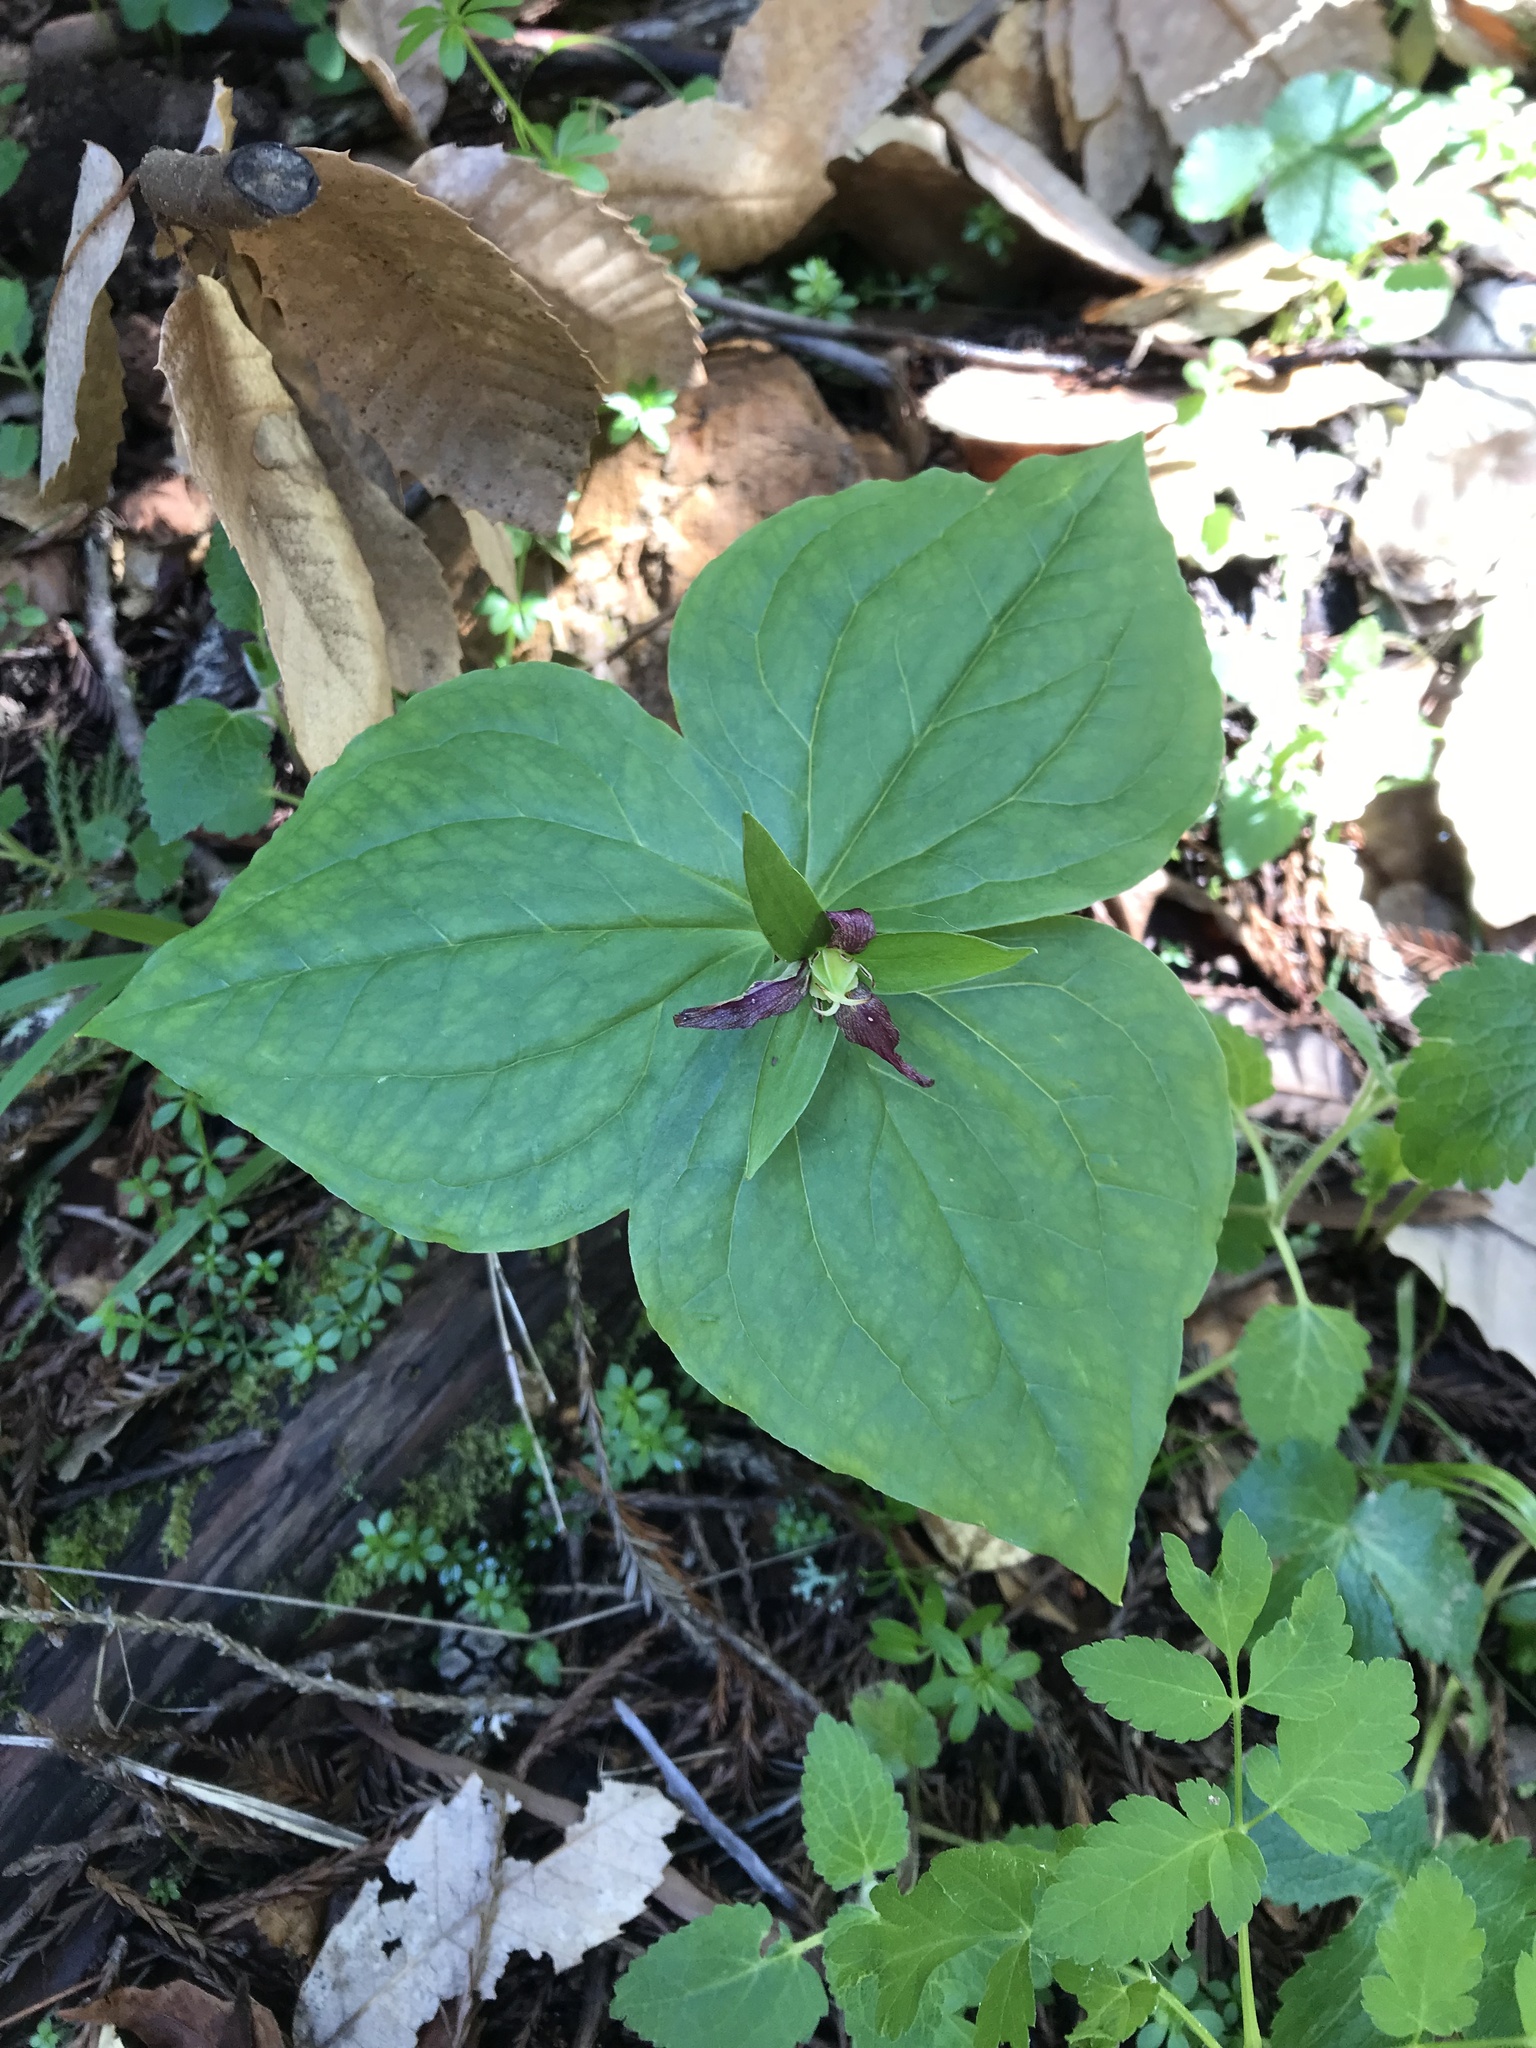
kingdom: Plantae
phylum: Tracheophyta
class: Liliopsida
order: Liliales
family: Melanthiaceae
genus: Trillium
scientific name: Trillium ovatum
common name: Pacific trillium
